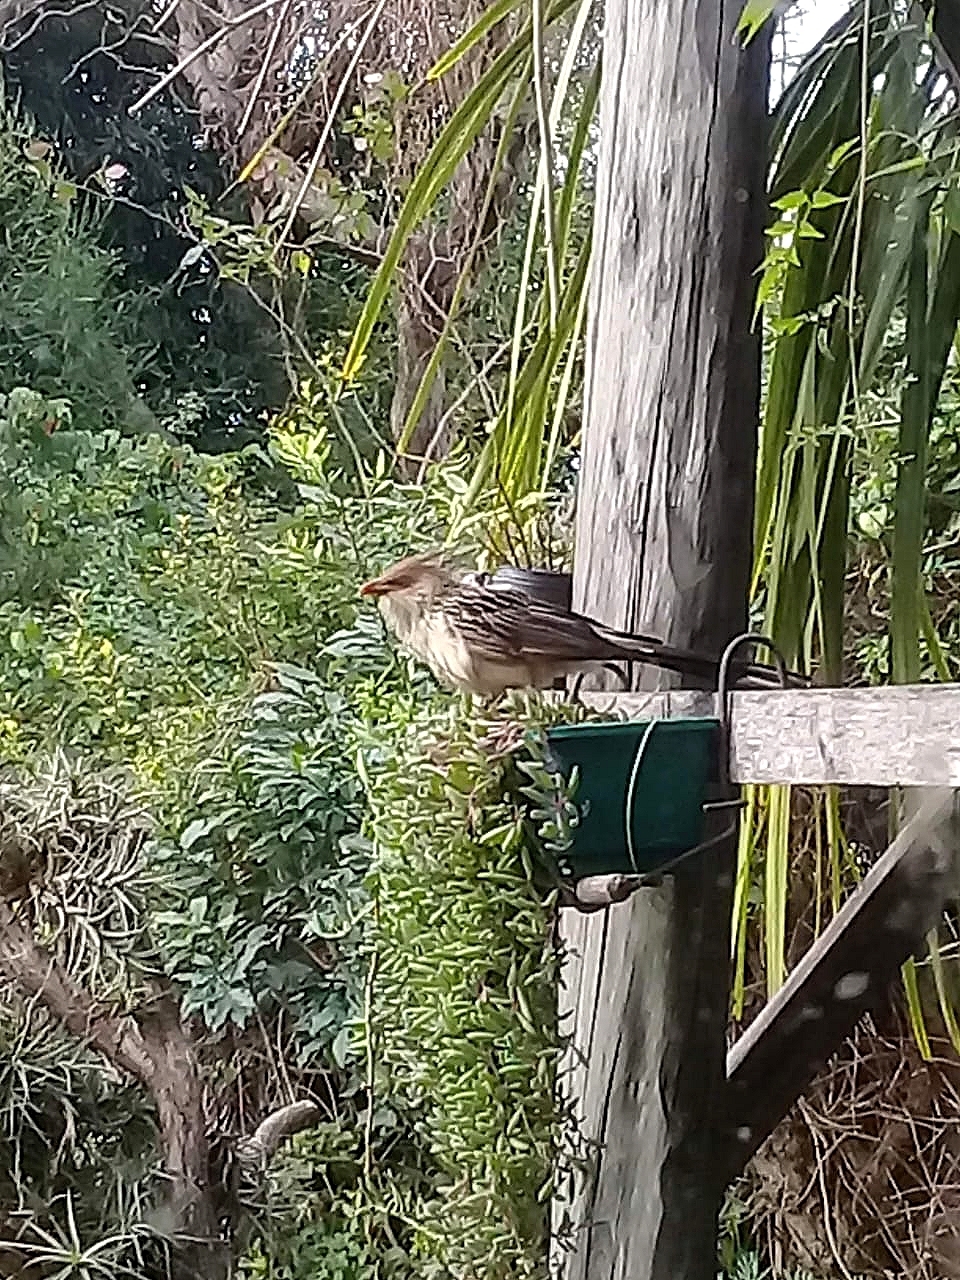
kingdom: Animalia
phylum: Chordata
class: Aves
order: Cuculiformes
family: Cuculidae
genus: Guira
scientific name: Guira guira
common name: Guira cuckoo
